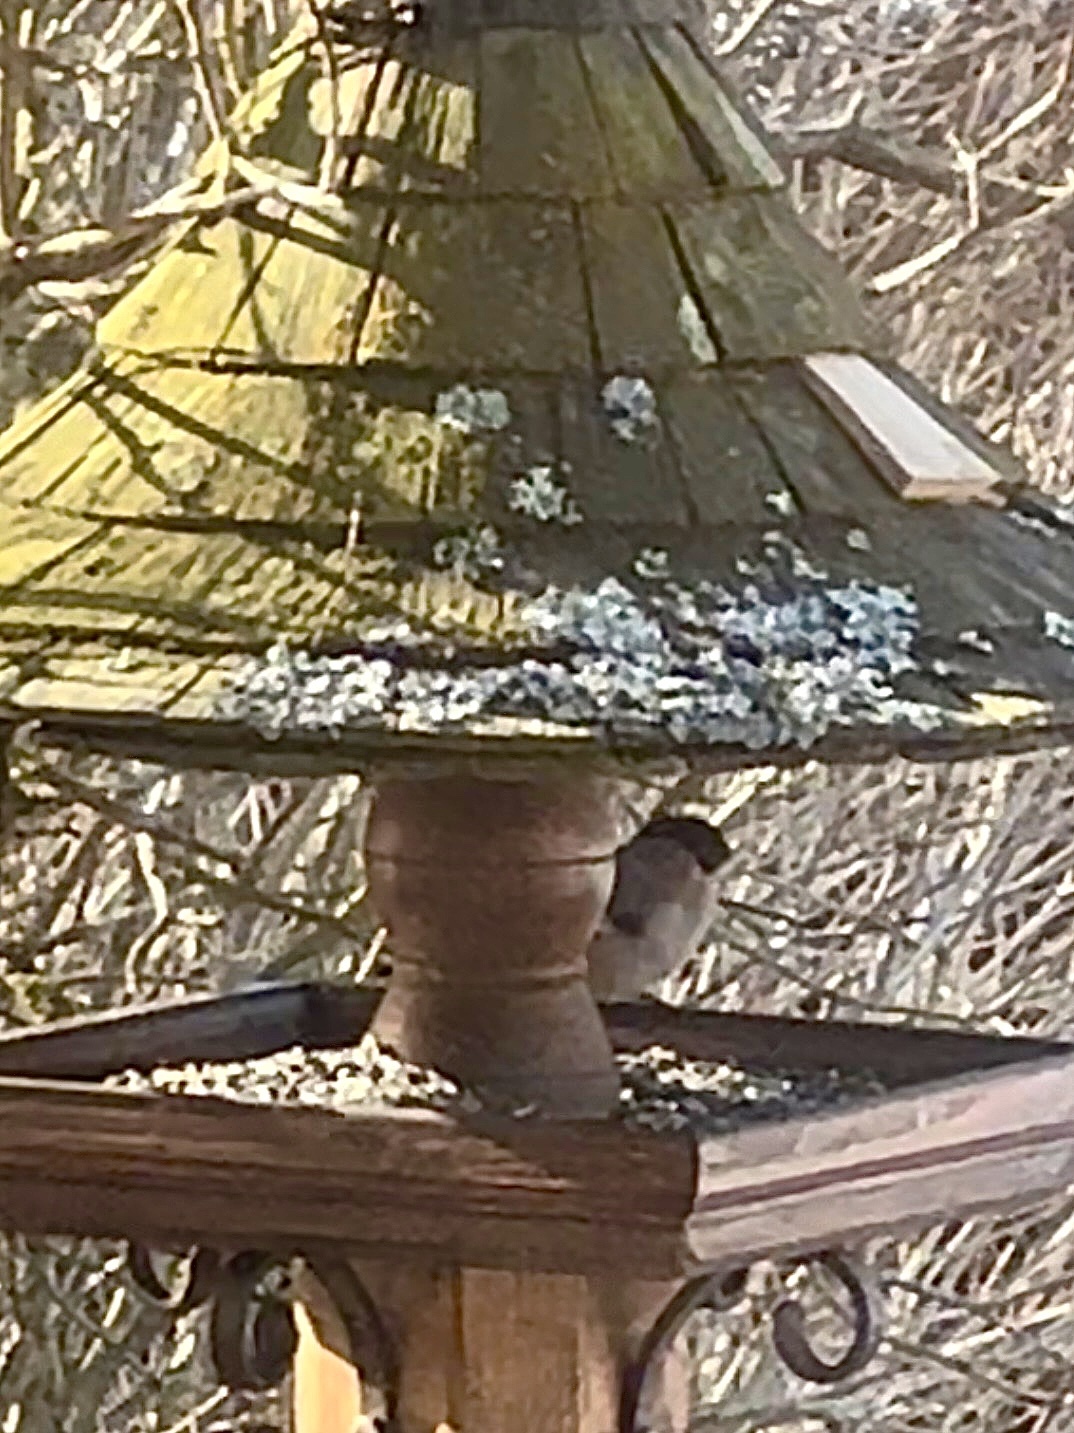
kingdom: Animalia
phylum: Chordata
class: Aves
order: Passeriformes
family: Fringillidae
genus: Pyrrhula
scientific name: Pyrrhula pyrrhula
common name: Eurasian bullfinch
